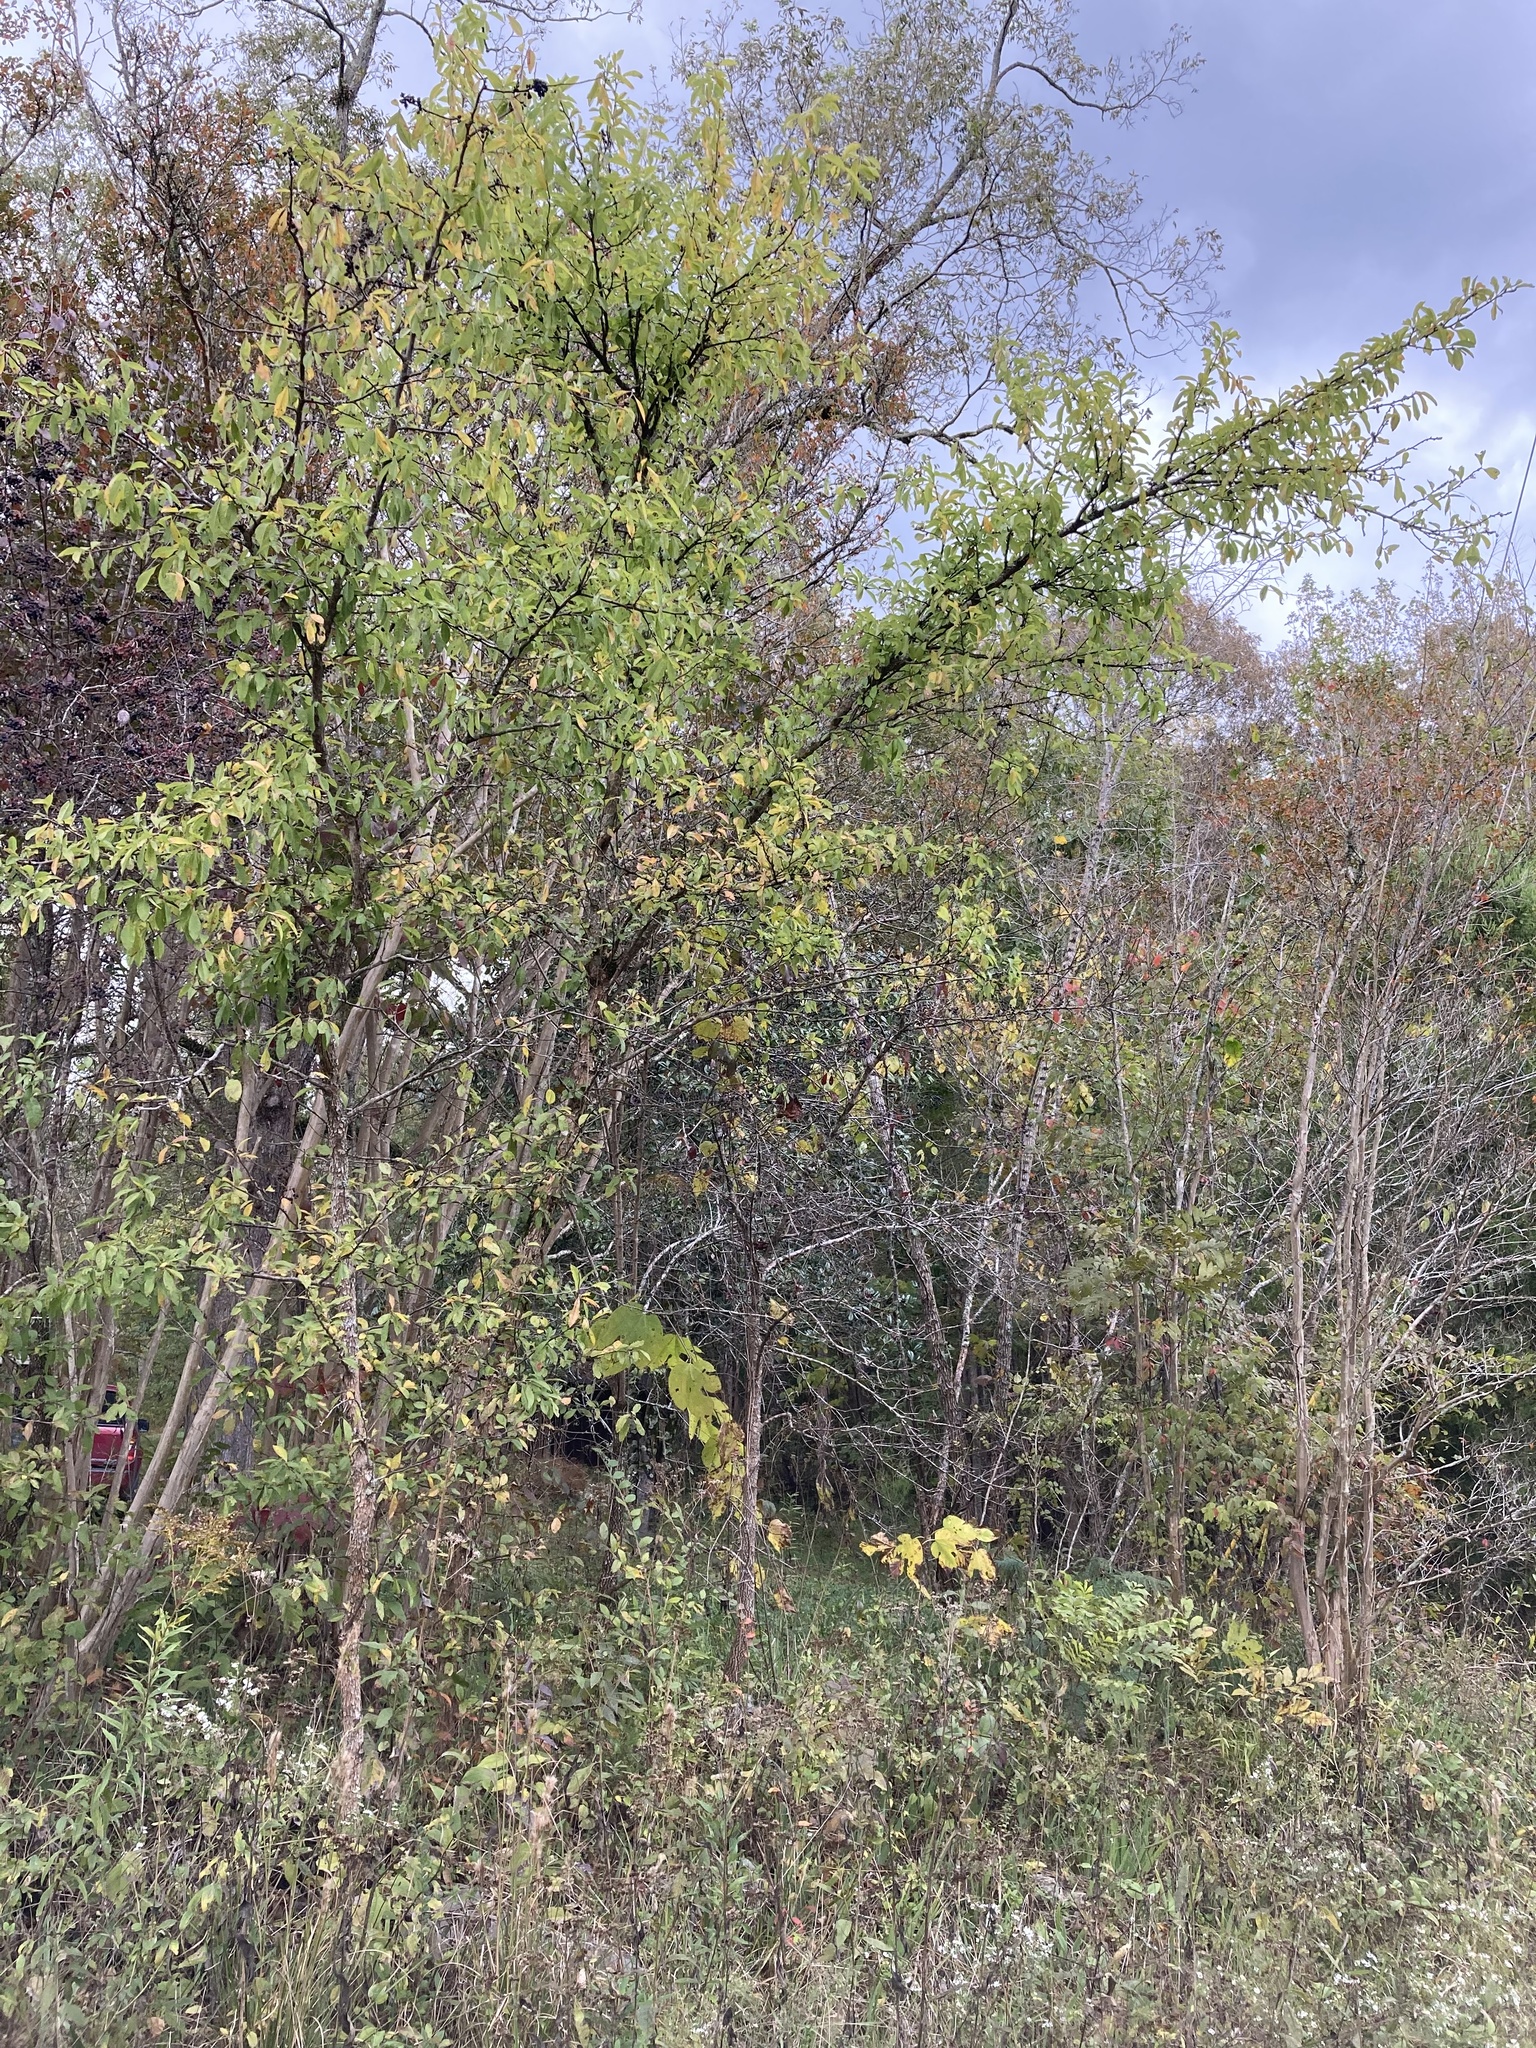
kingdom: Plantae
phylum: Tracheophyta
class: Magnoliopsida
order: Ericales
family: Sapotaceae
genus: Sideroxylon
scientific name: Sideroxylon lycioides
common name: Buckthorn bumelia
